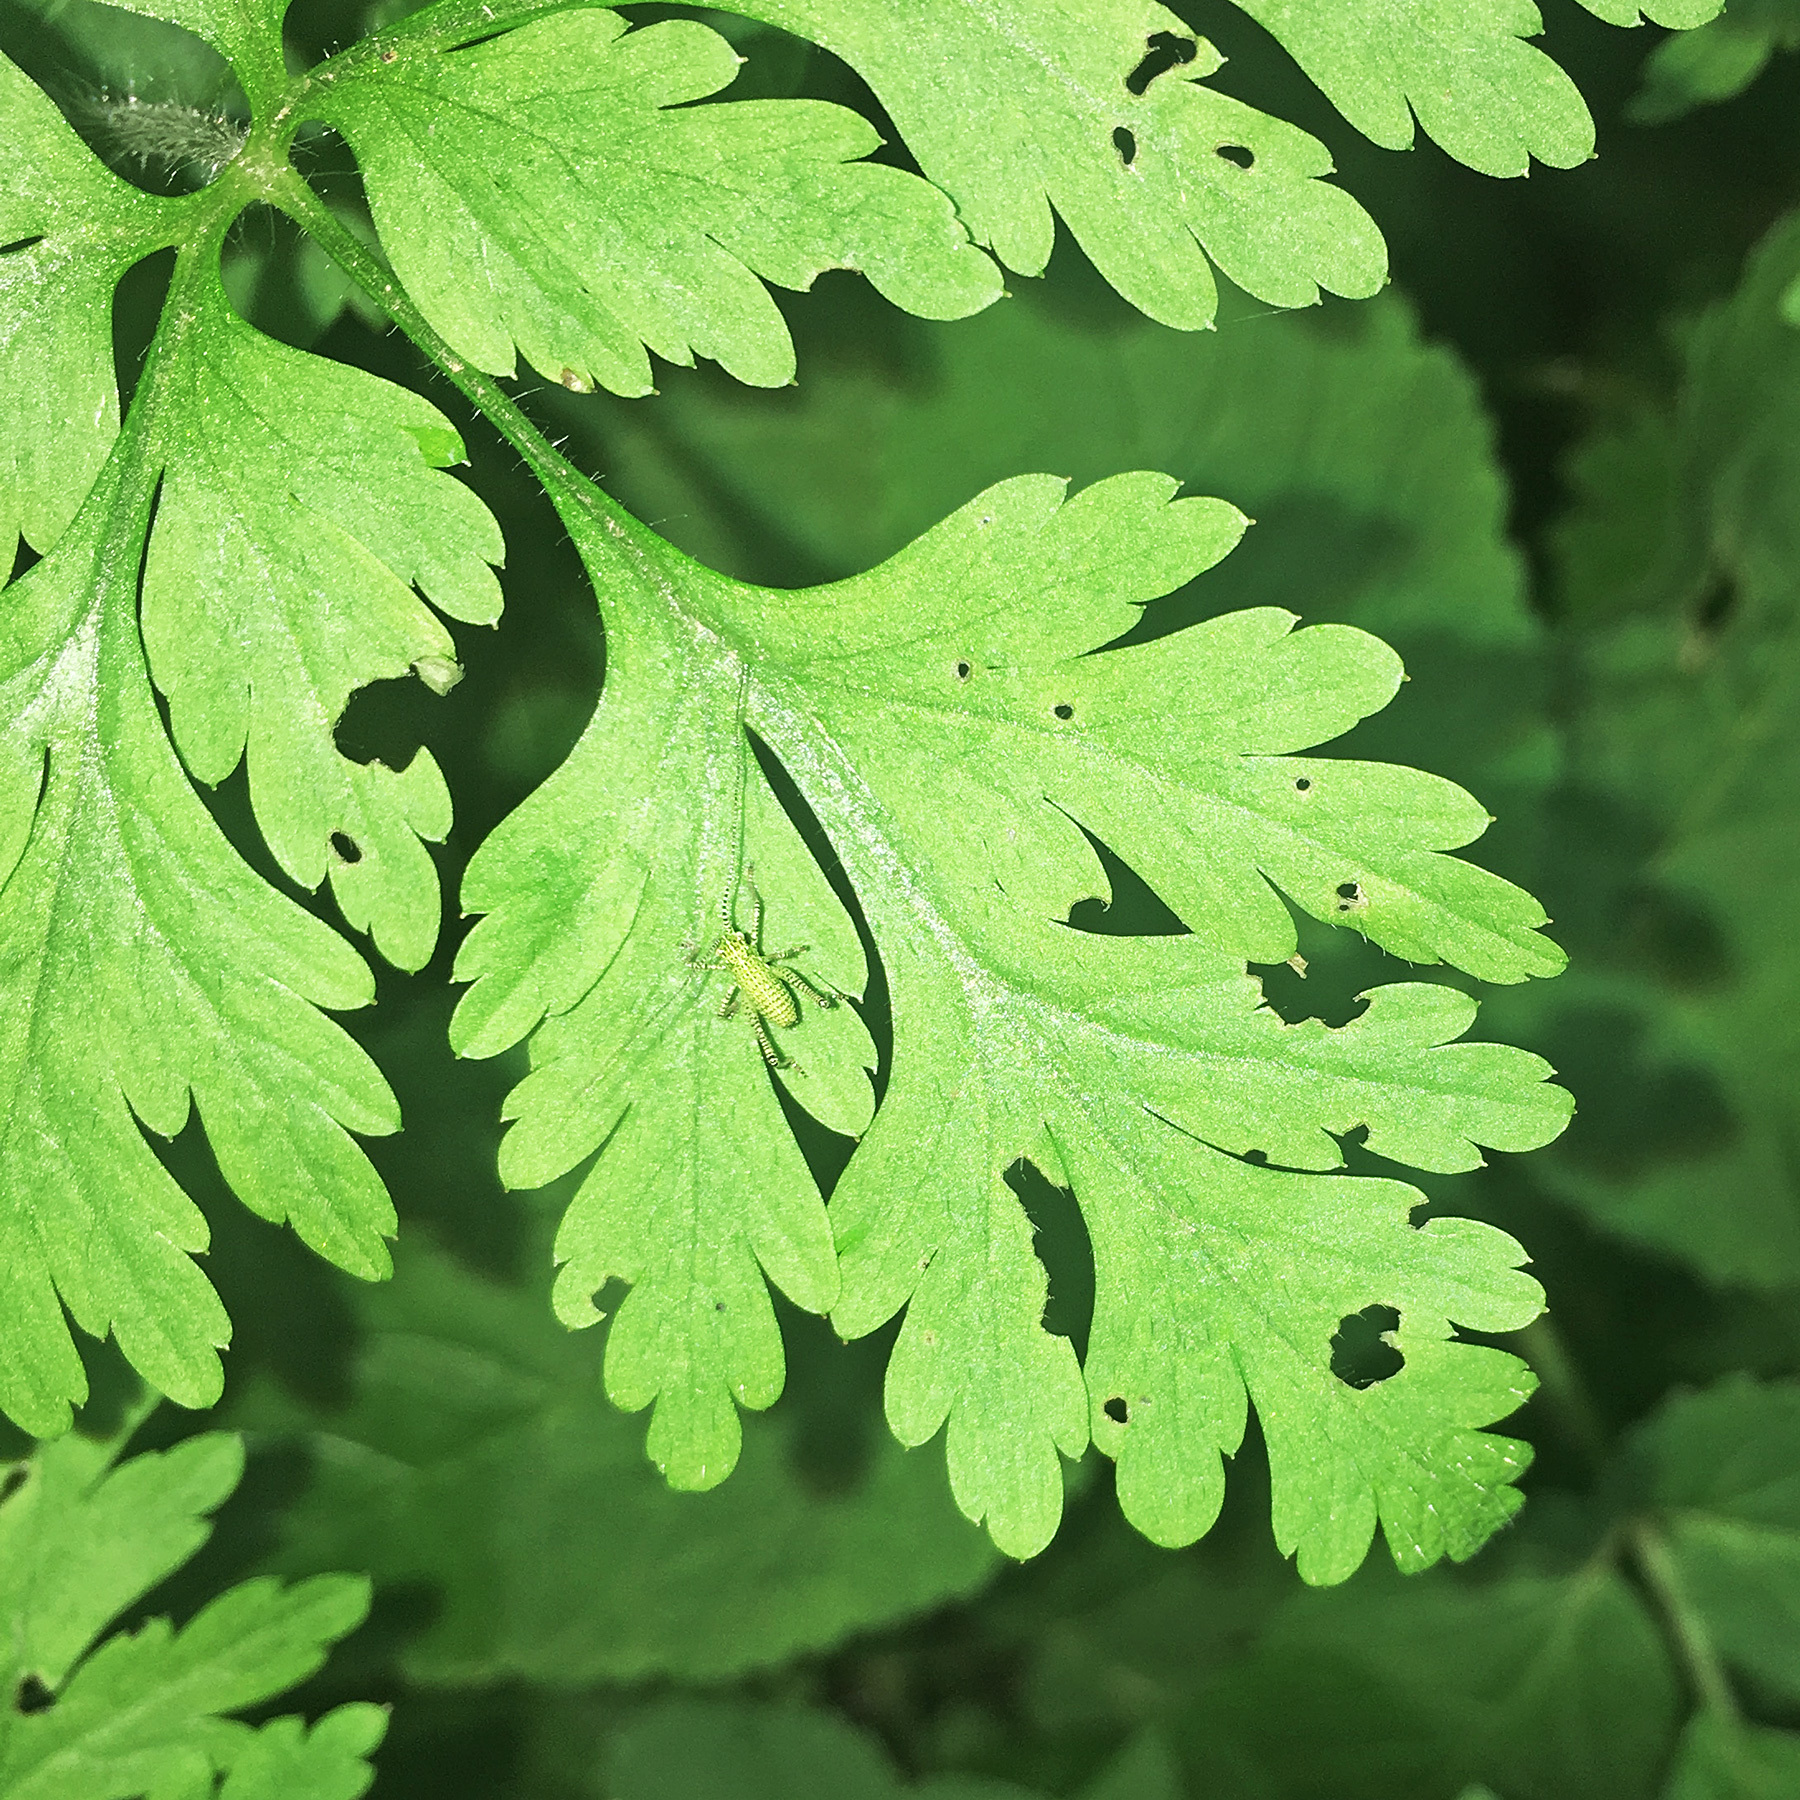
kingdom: Animalia
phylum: Arthropoda
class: Insecta
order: Orthoptera
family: Tettigoniidae
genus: Leptophyes
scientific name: Leptophyes punctatissima
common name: Speckled bush-cricket
